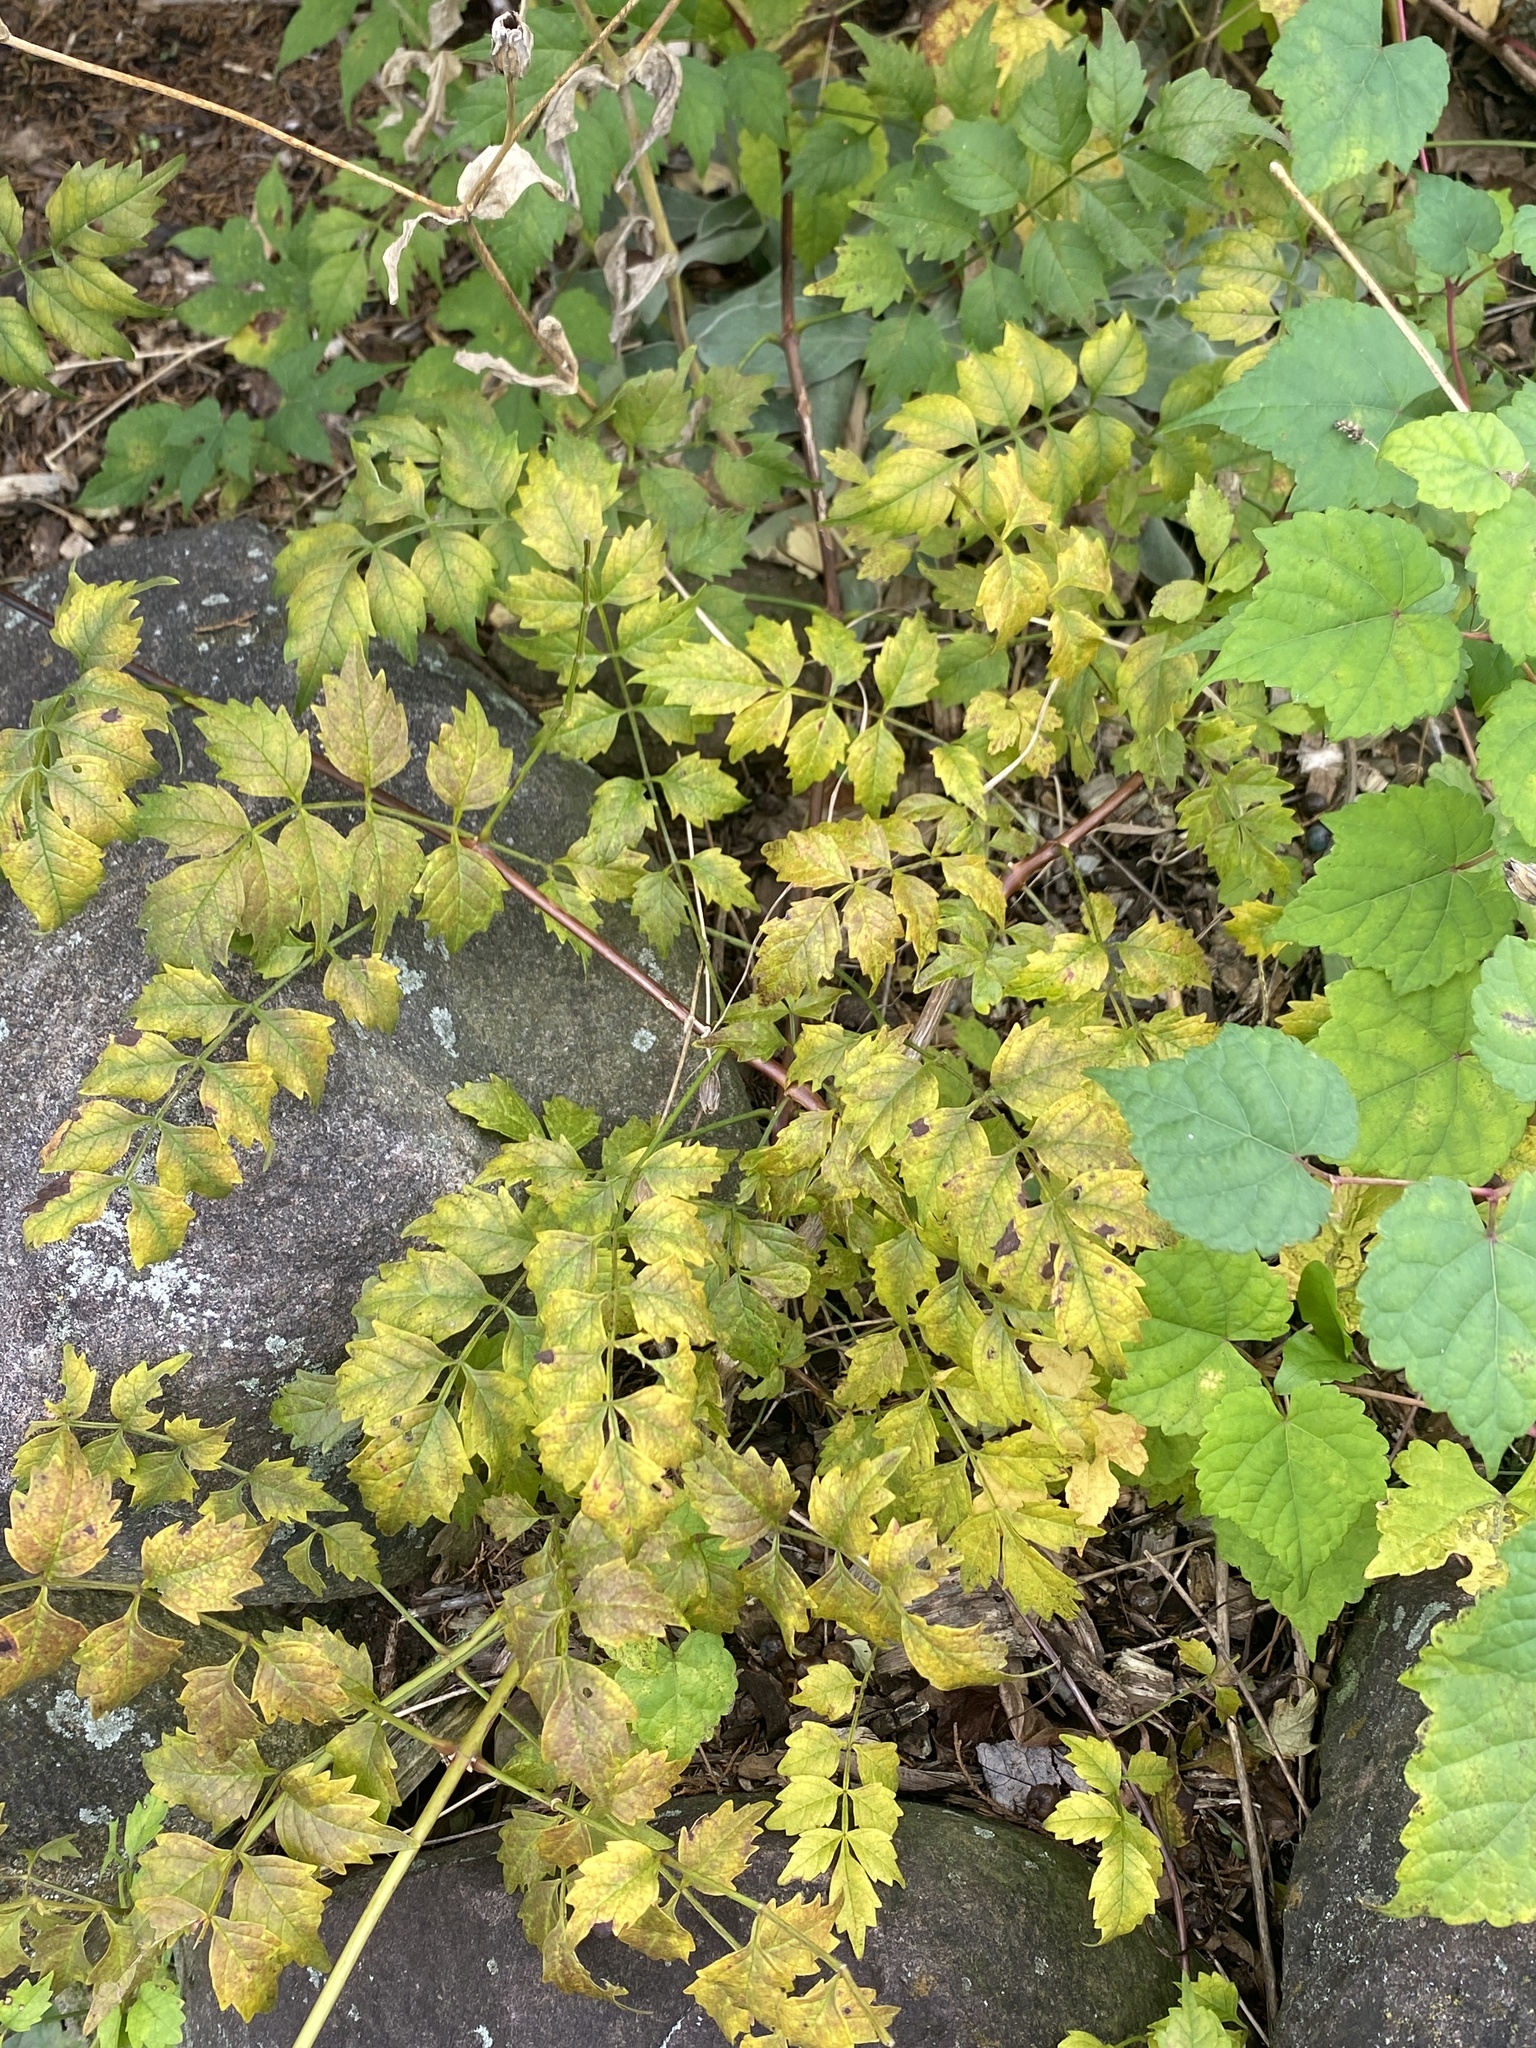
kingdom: Plantae
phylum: Tracheophyta
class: Magnoliopsida
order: Lamiales
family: Bignoniaceae
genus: Campsis
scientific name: Campsis radicans
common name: Trumpet-creeper
